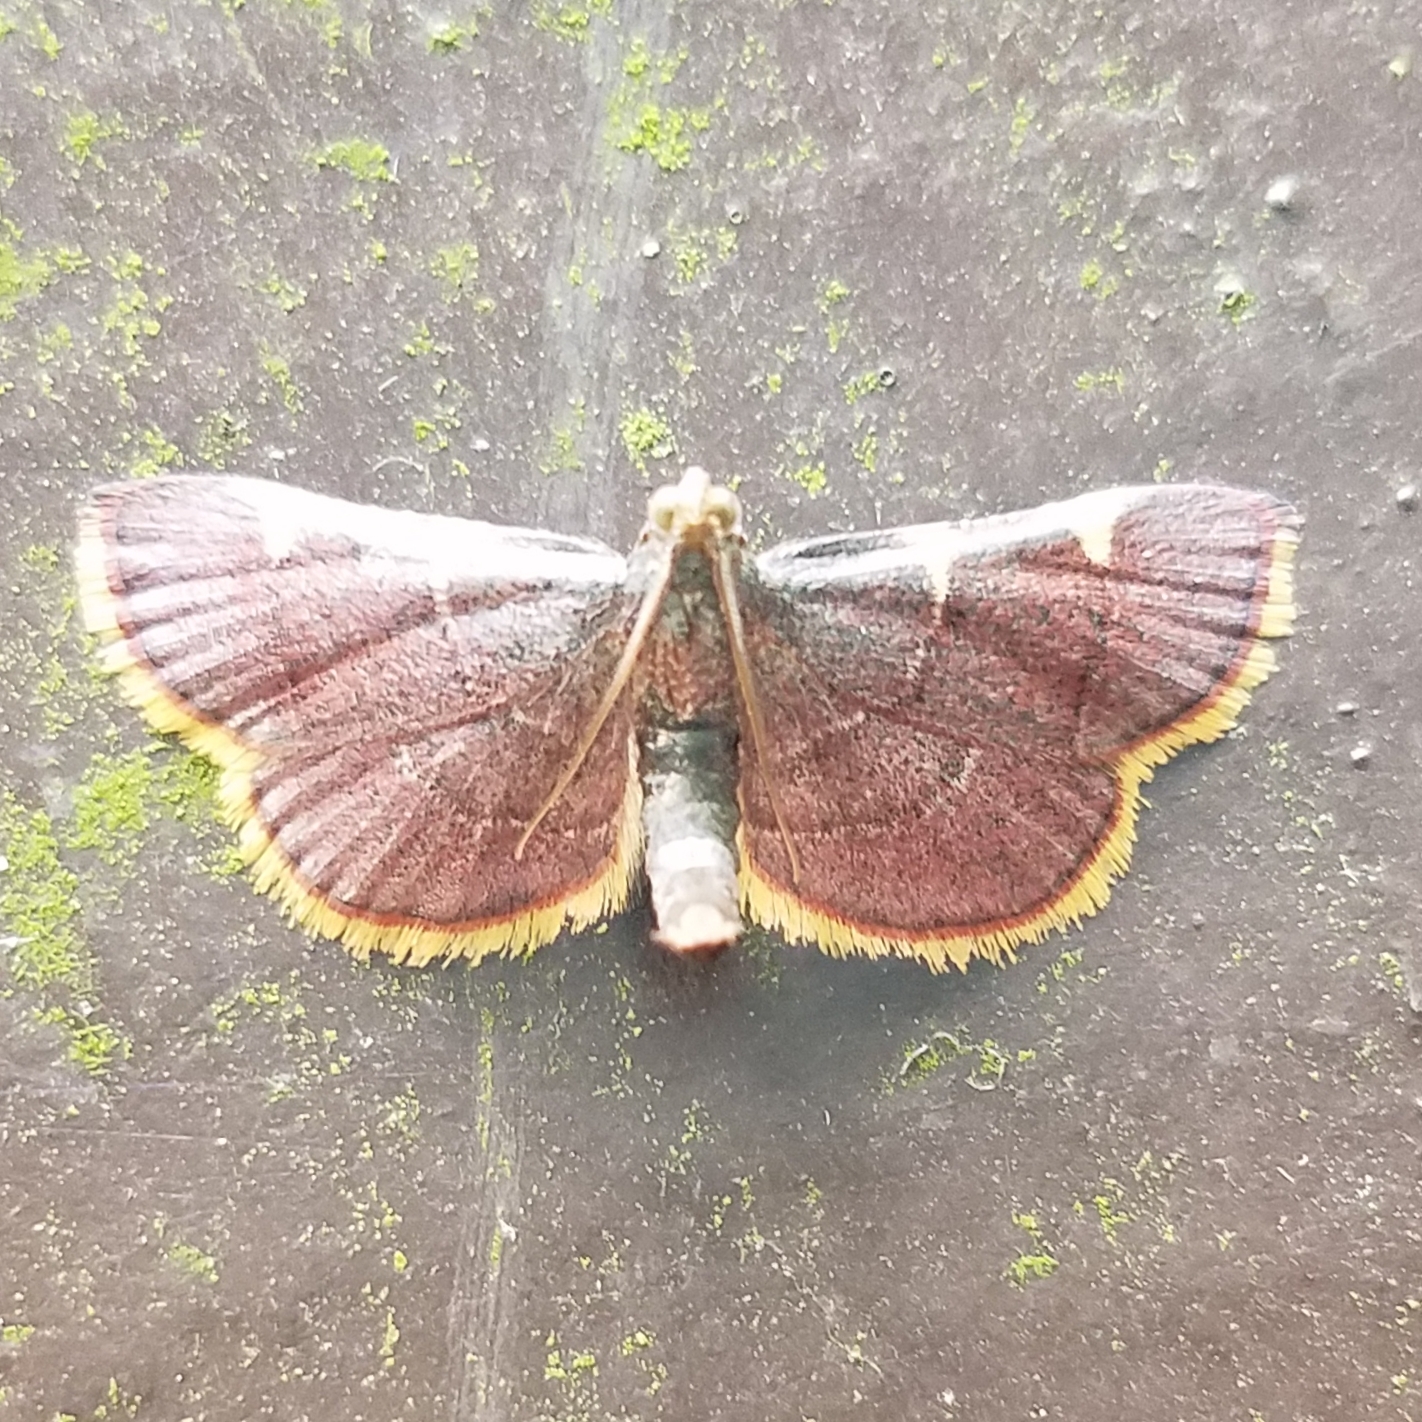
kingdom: Animalia
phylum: Arthropoda
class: Insecta
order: Lepidoptera
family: Pyralidae
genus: Hypsopygia
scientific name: Hypsopygia olinalis
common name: Yellow-fringed dolichomia moth
